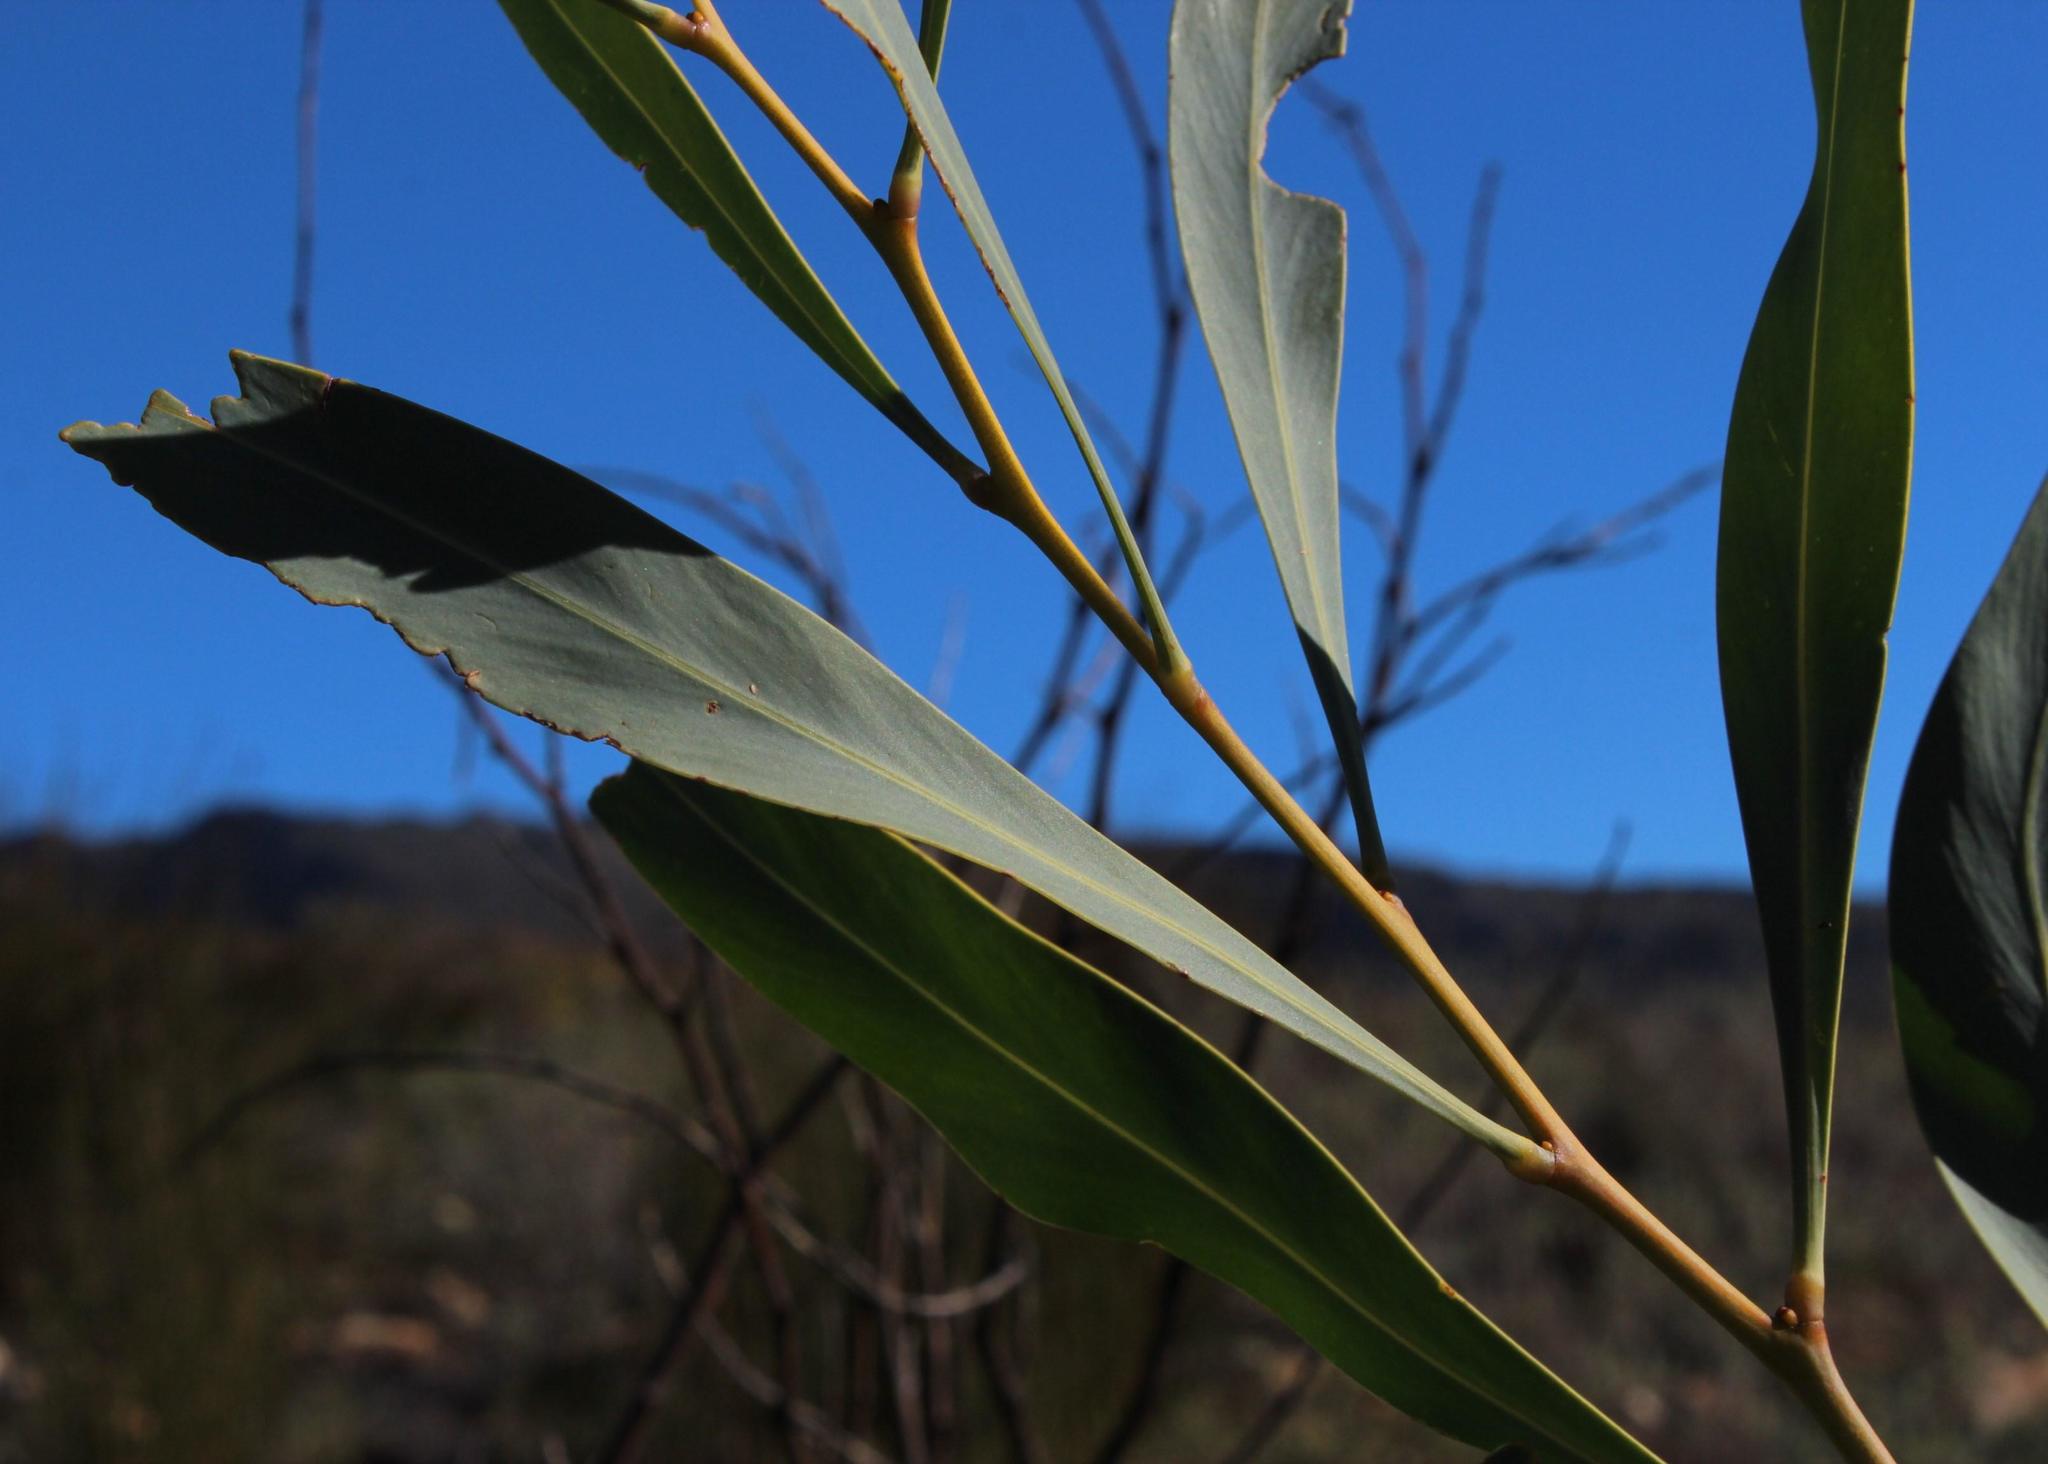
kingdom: Plantae
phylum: Tracheophyta
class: Magnoliopsida
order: Fabales
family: Fabaceae
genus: Acacia
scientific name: Acacia saligna
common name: Orange wattle
